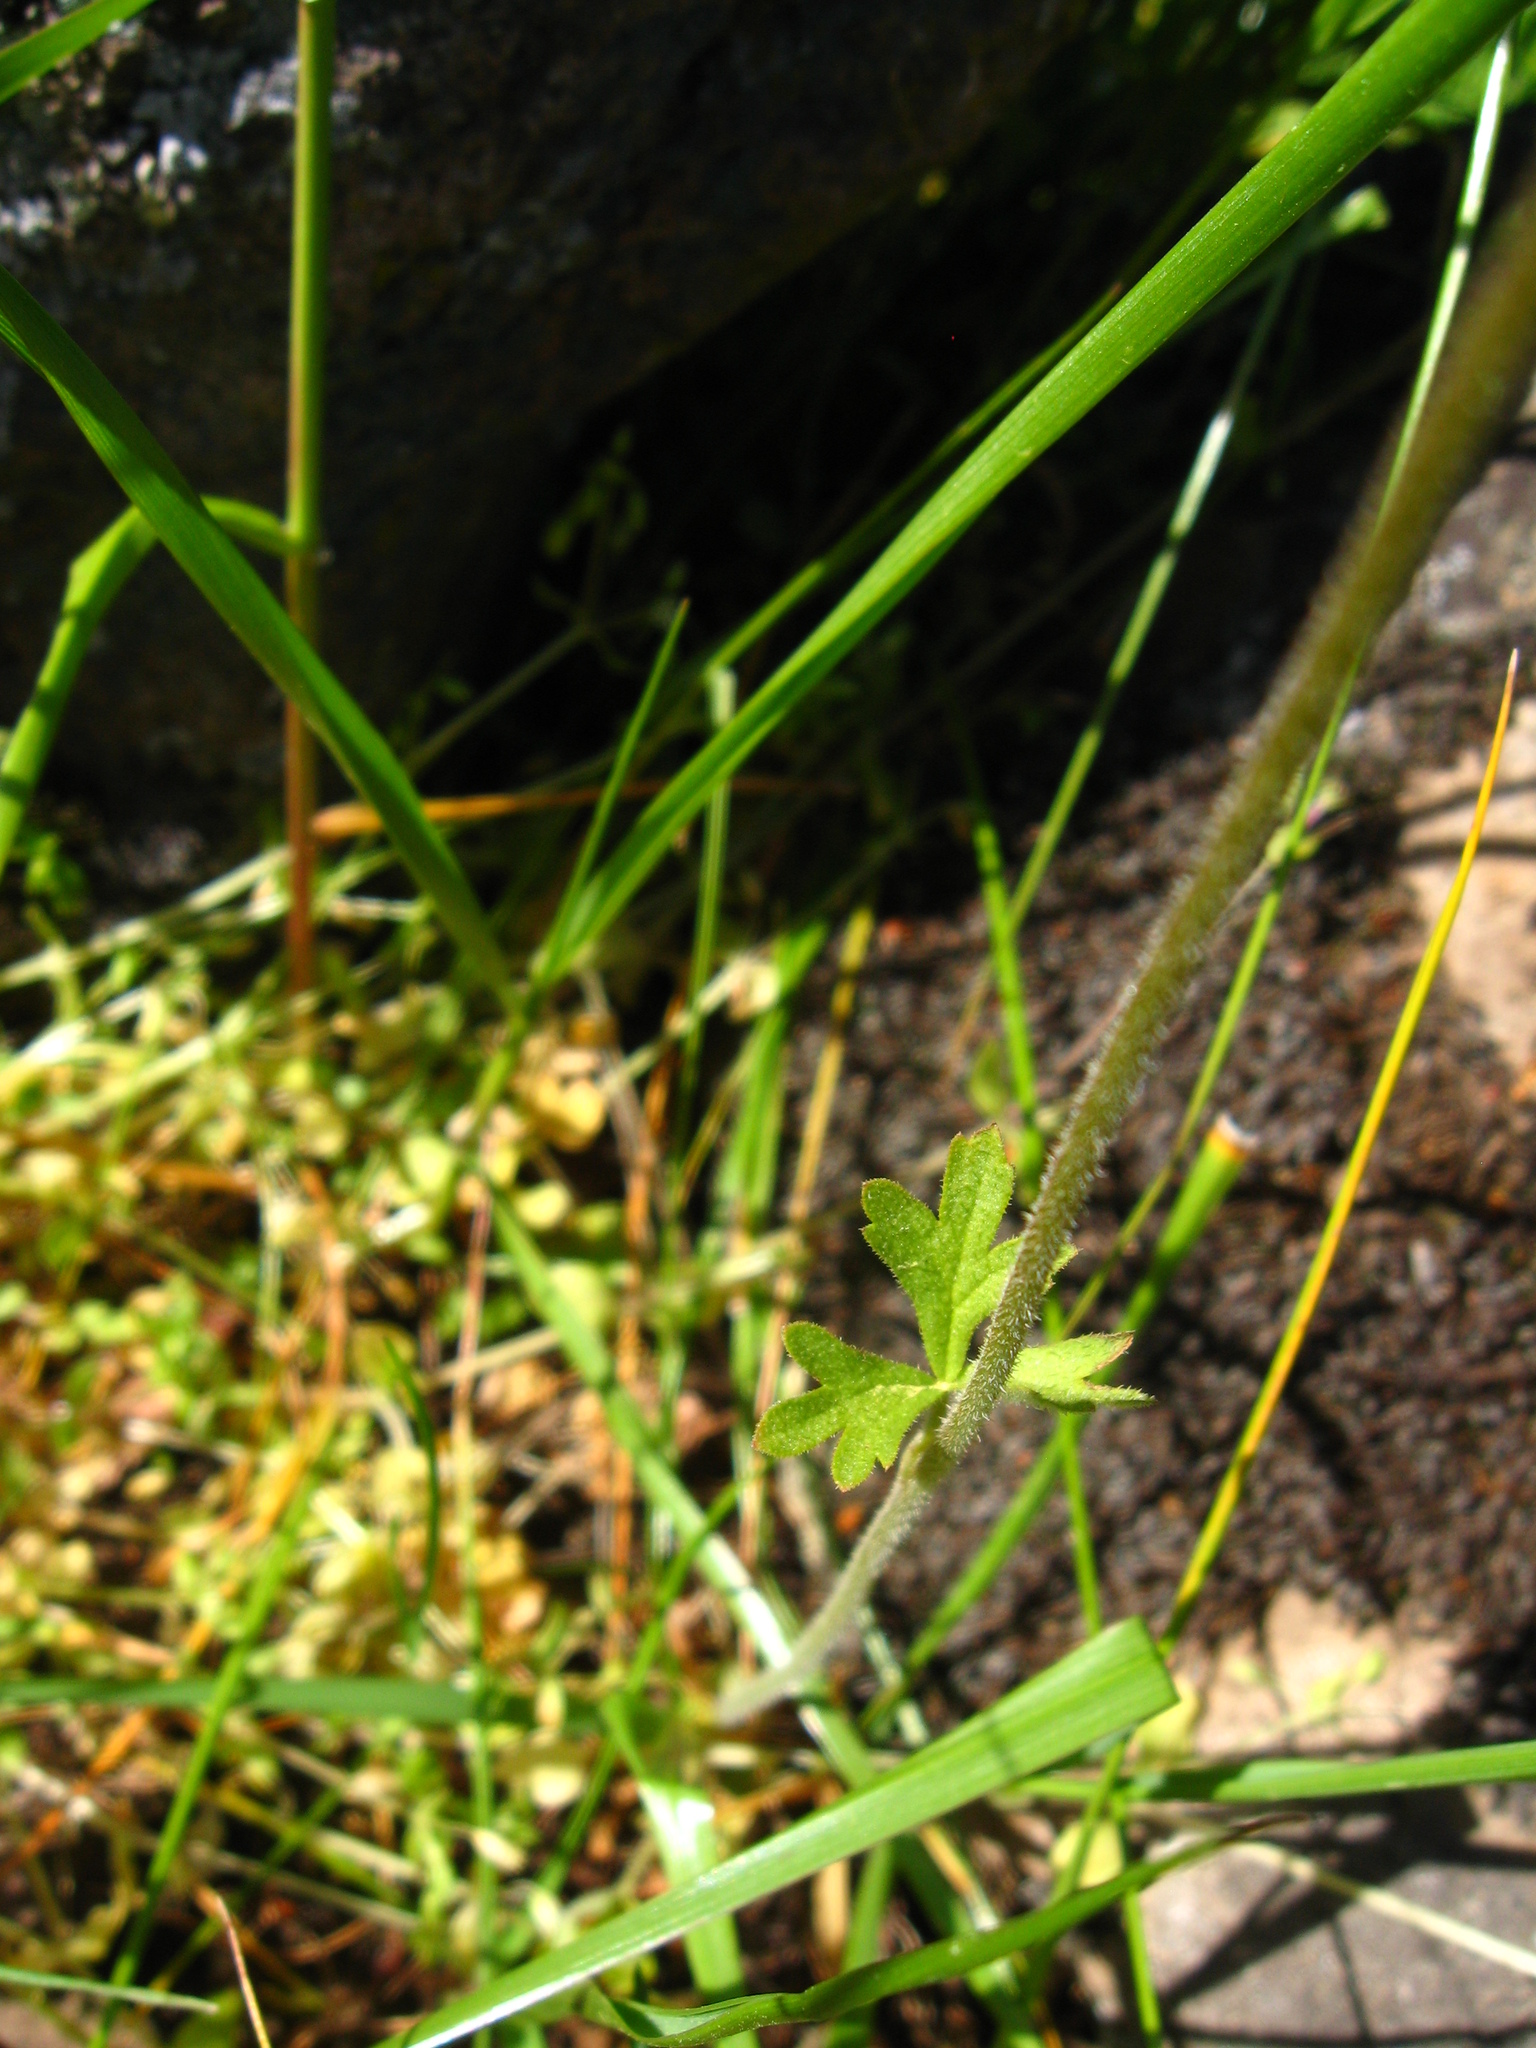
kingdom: Plantae
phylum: Tracheophyta
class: Magnoliopsida
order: Saxifragales
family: Saxifragaceae
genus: Lithophragma
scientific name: Lithophragma trifoliatum
